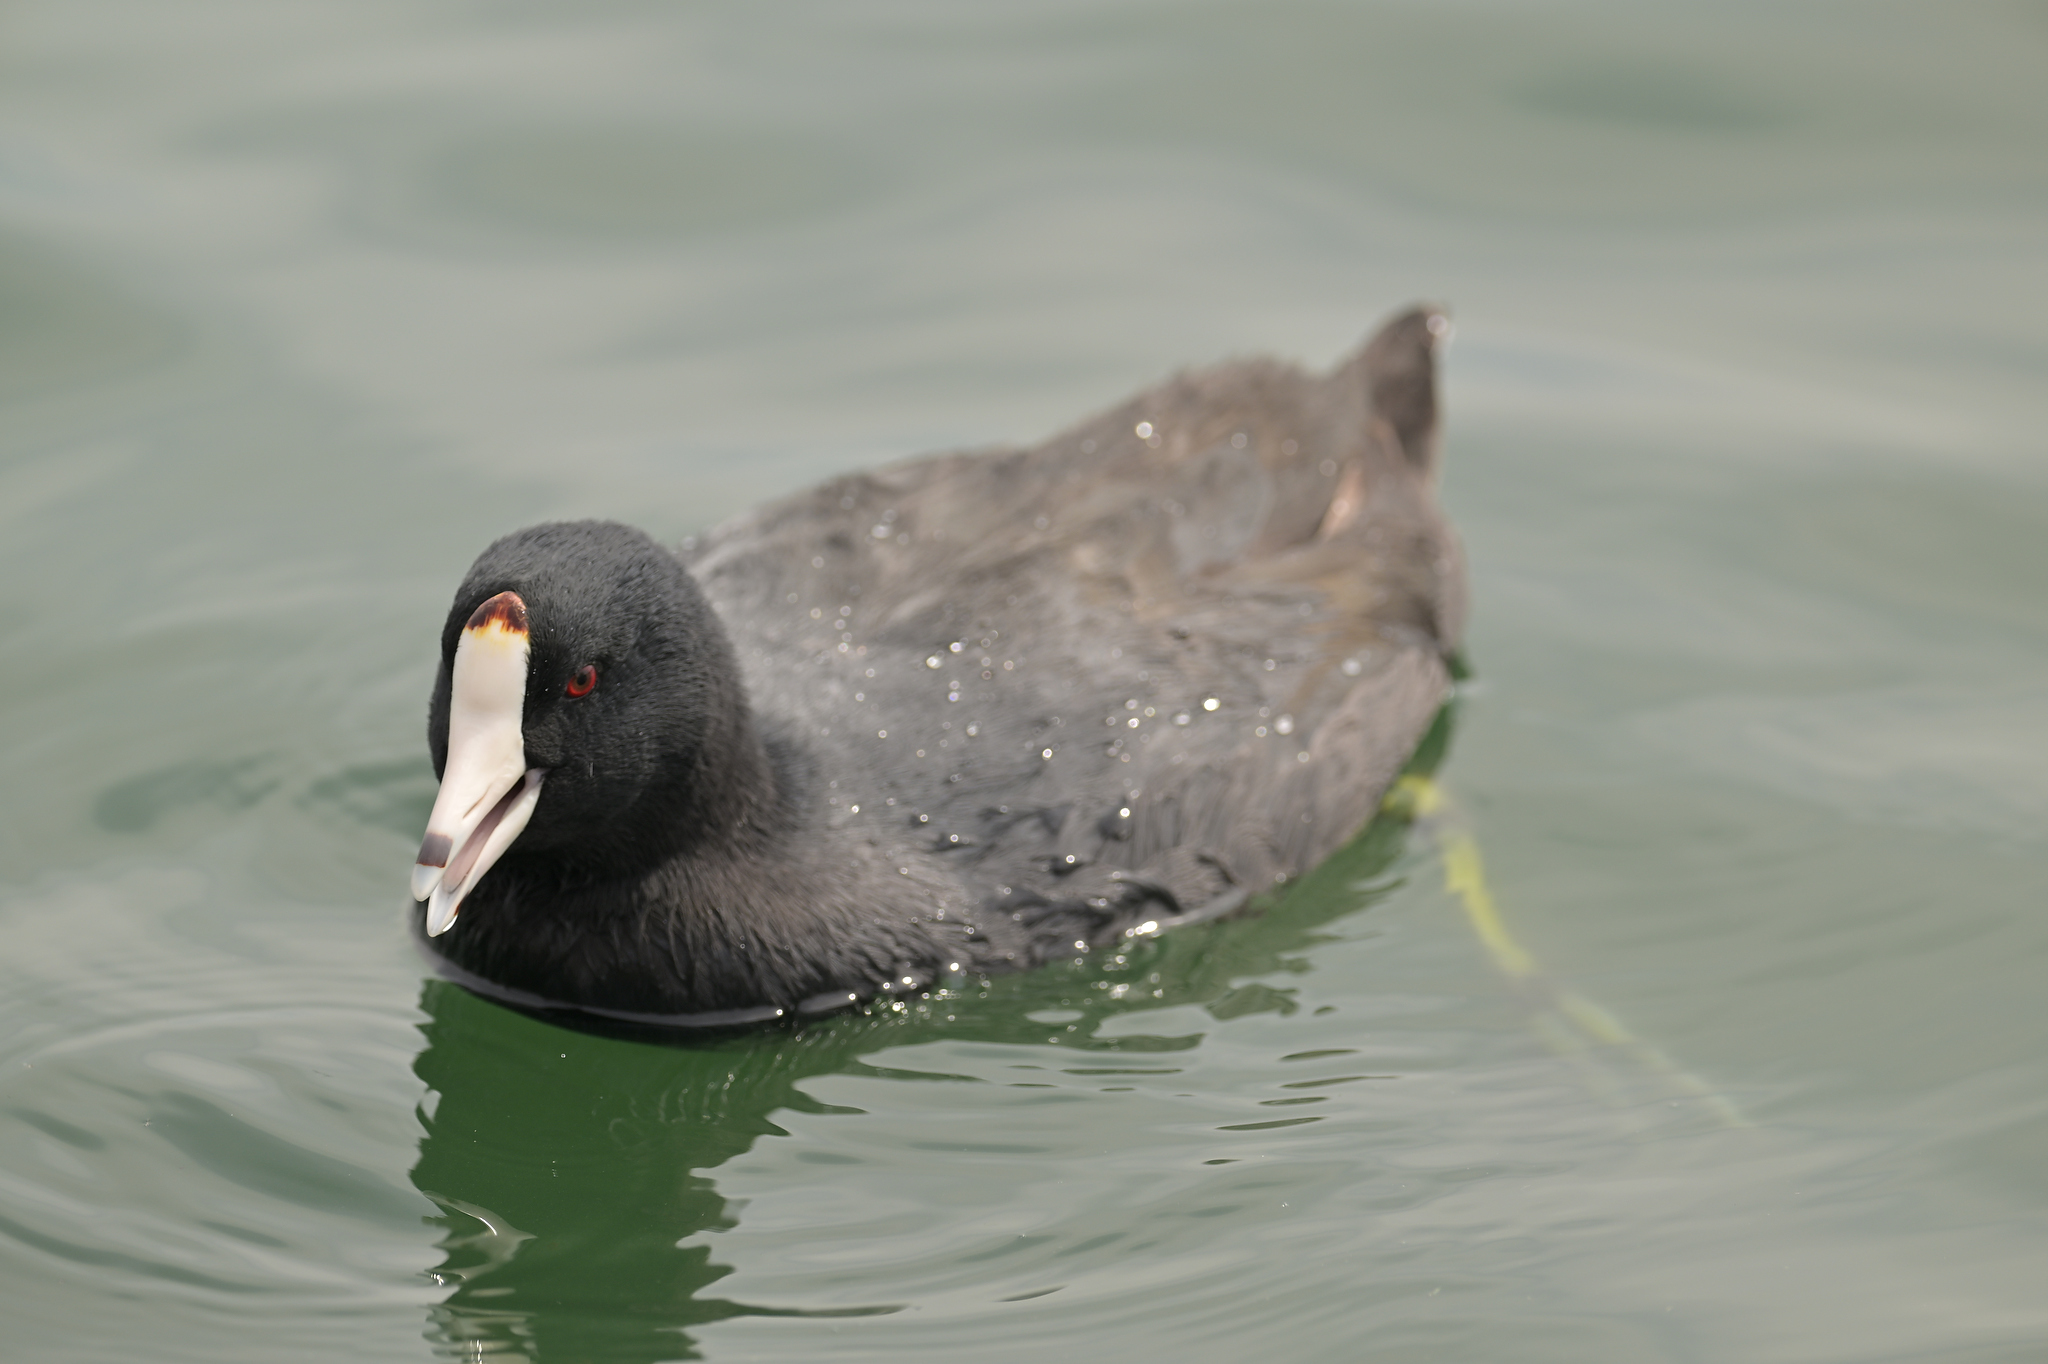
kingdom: Animalia
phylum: Chordata
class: Aves
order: Gruiformes
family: Rallidae
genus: Fulica
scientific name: Fulica americana
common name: American coot
